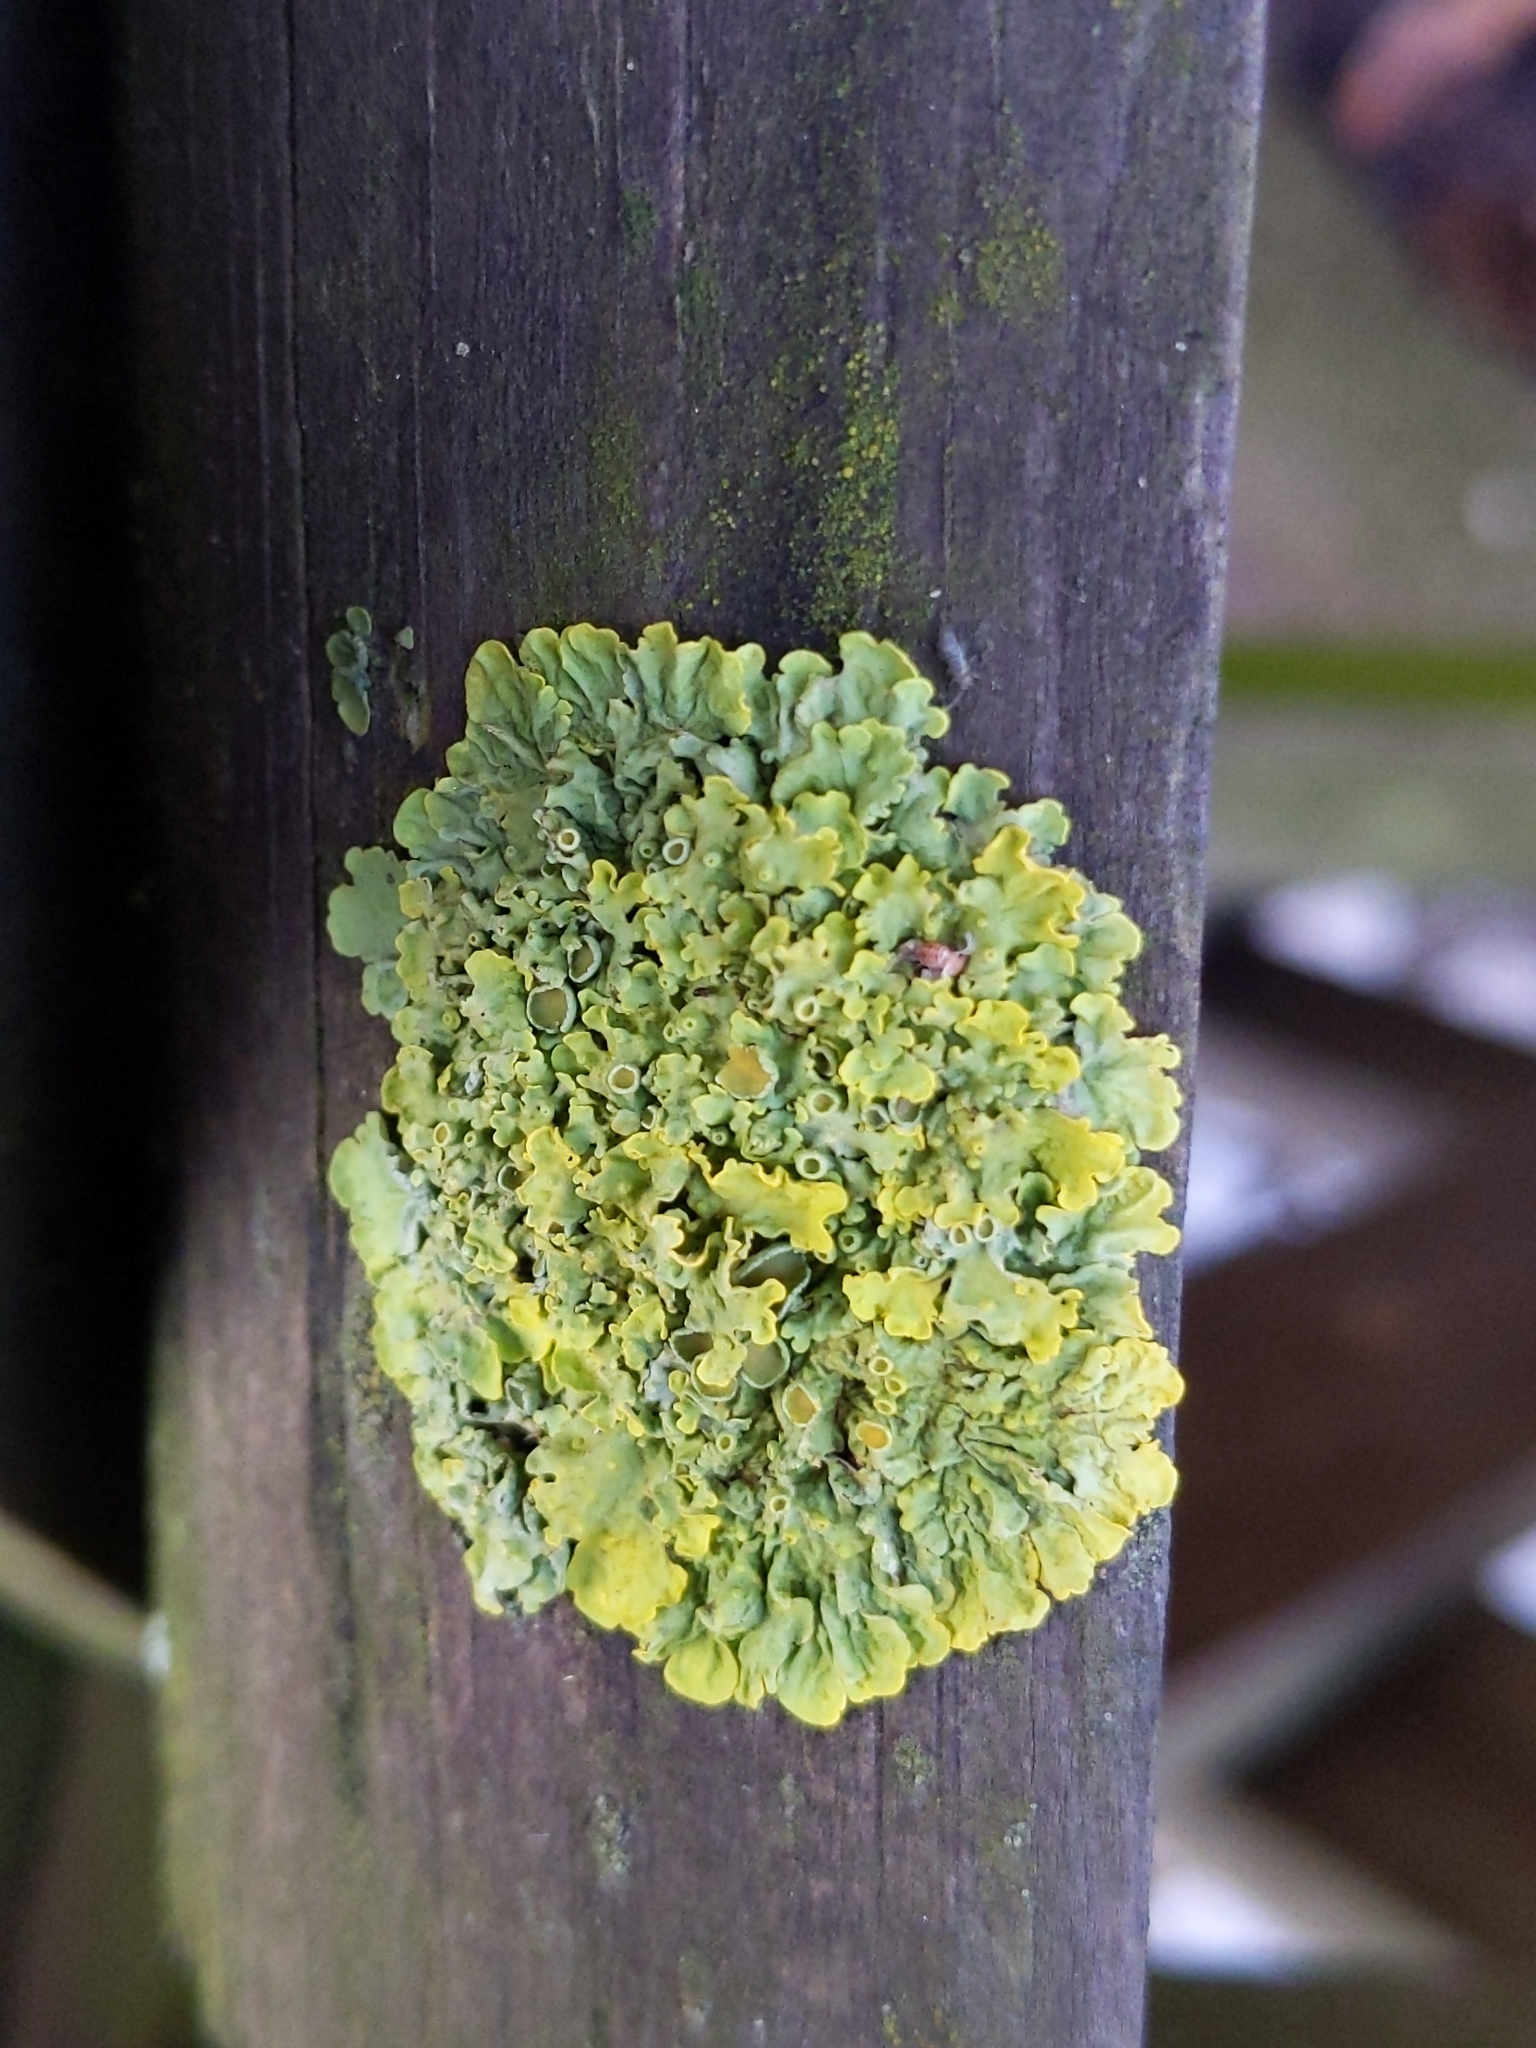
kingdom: Fungi
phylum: Ascomycota
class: Lecanoromycetes
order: Teloschistales
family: Teloschistaceae
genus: Xanthoria
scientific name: Xanthoria parietina
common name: Common orange lichen
